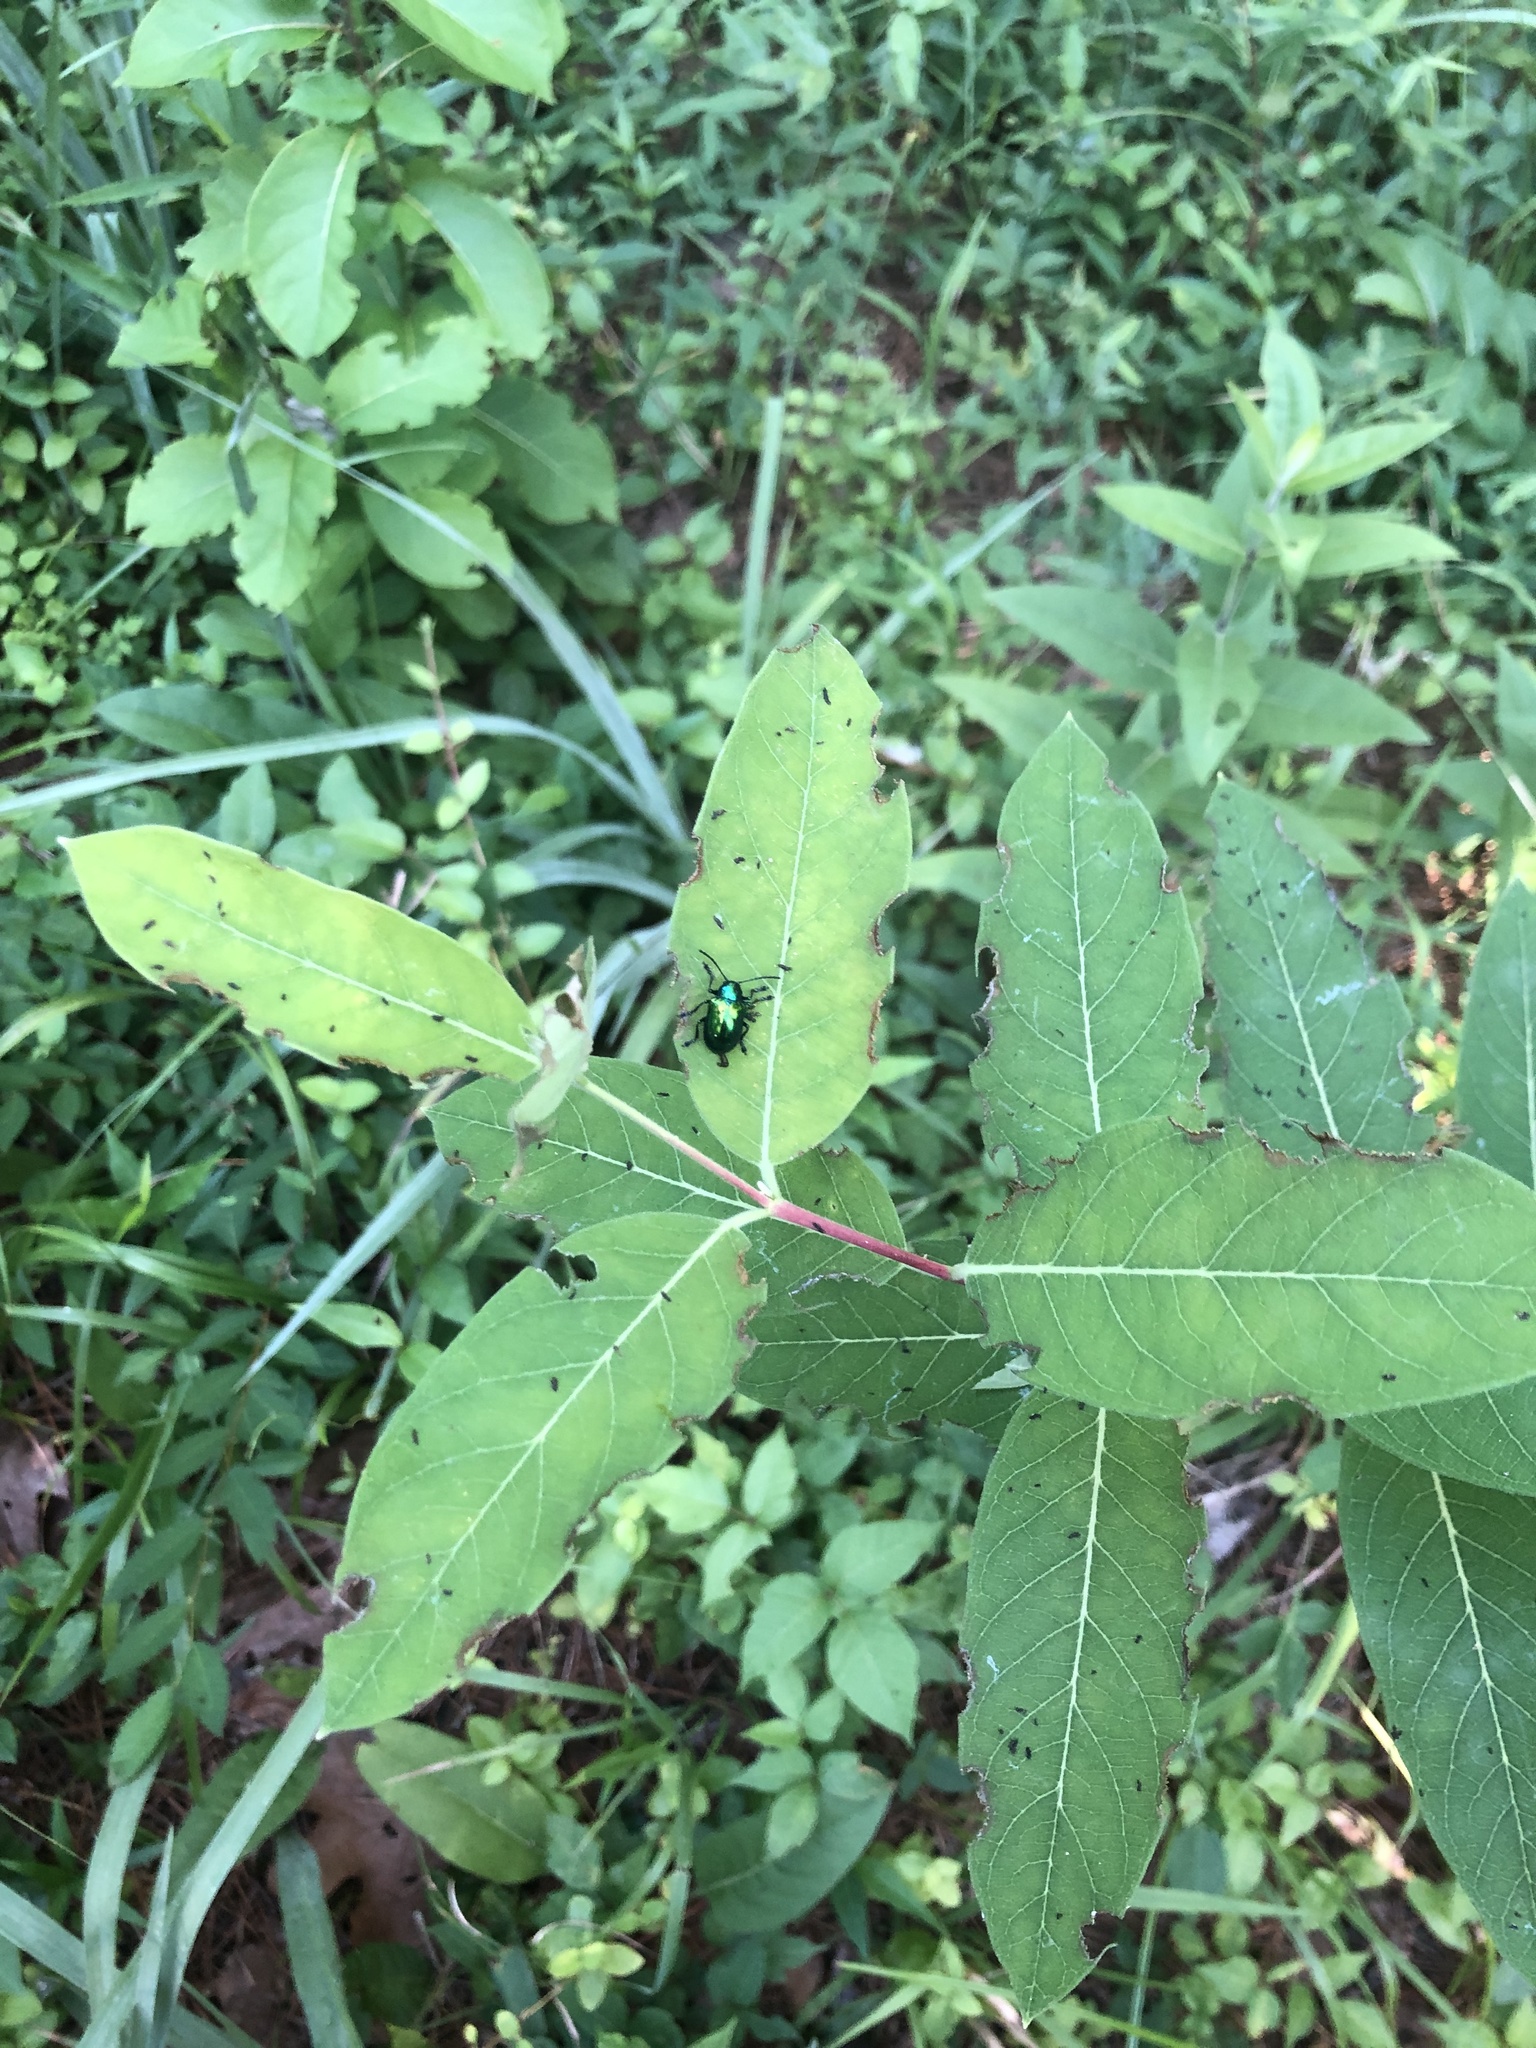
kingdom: Plantae
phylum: Tracheophyta
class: Magnoliopsida
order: Gentianales
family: Apocynaceae
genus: Apocynum
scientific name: Apocynum cannabinum
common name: Hemp dogbane
